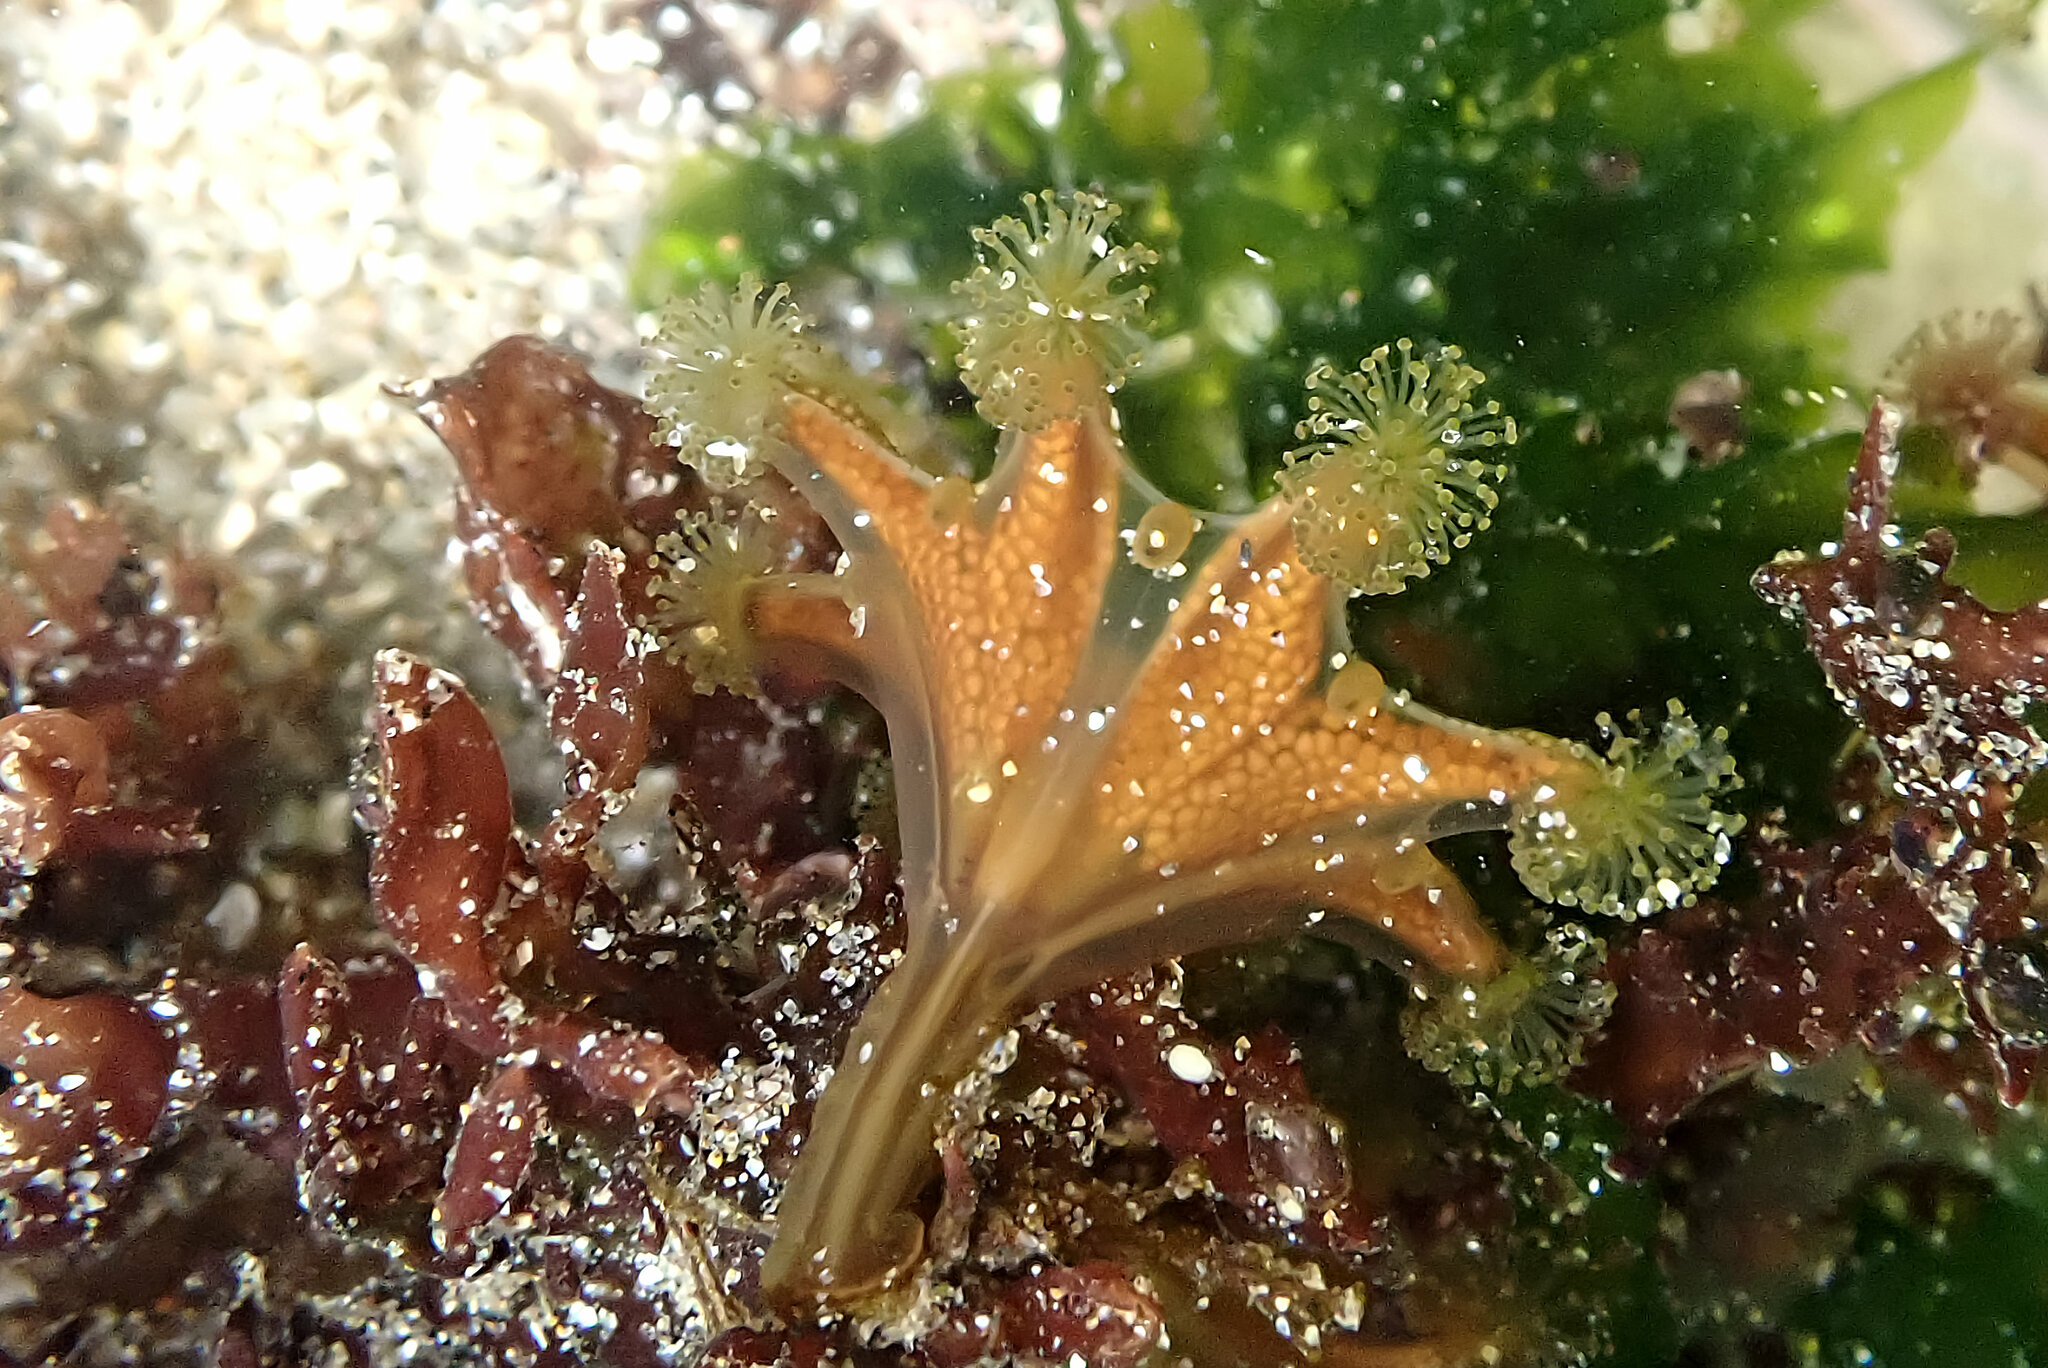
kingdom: Animalia
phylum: Cnidaria
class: Staurozoa
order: Stauromedusae
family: Haliclystidae
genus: Haliclystus
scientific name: Haliclystus sanjuanensis
